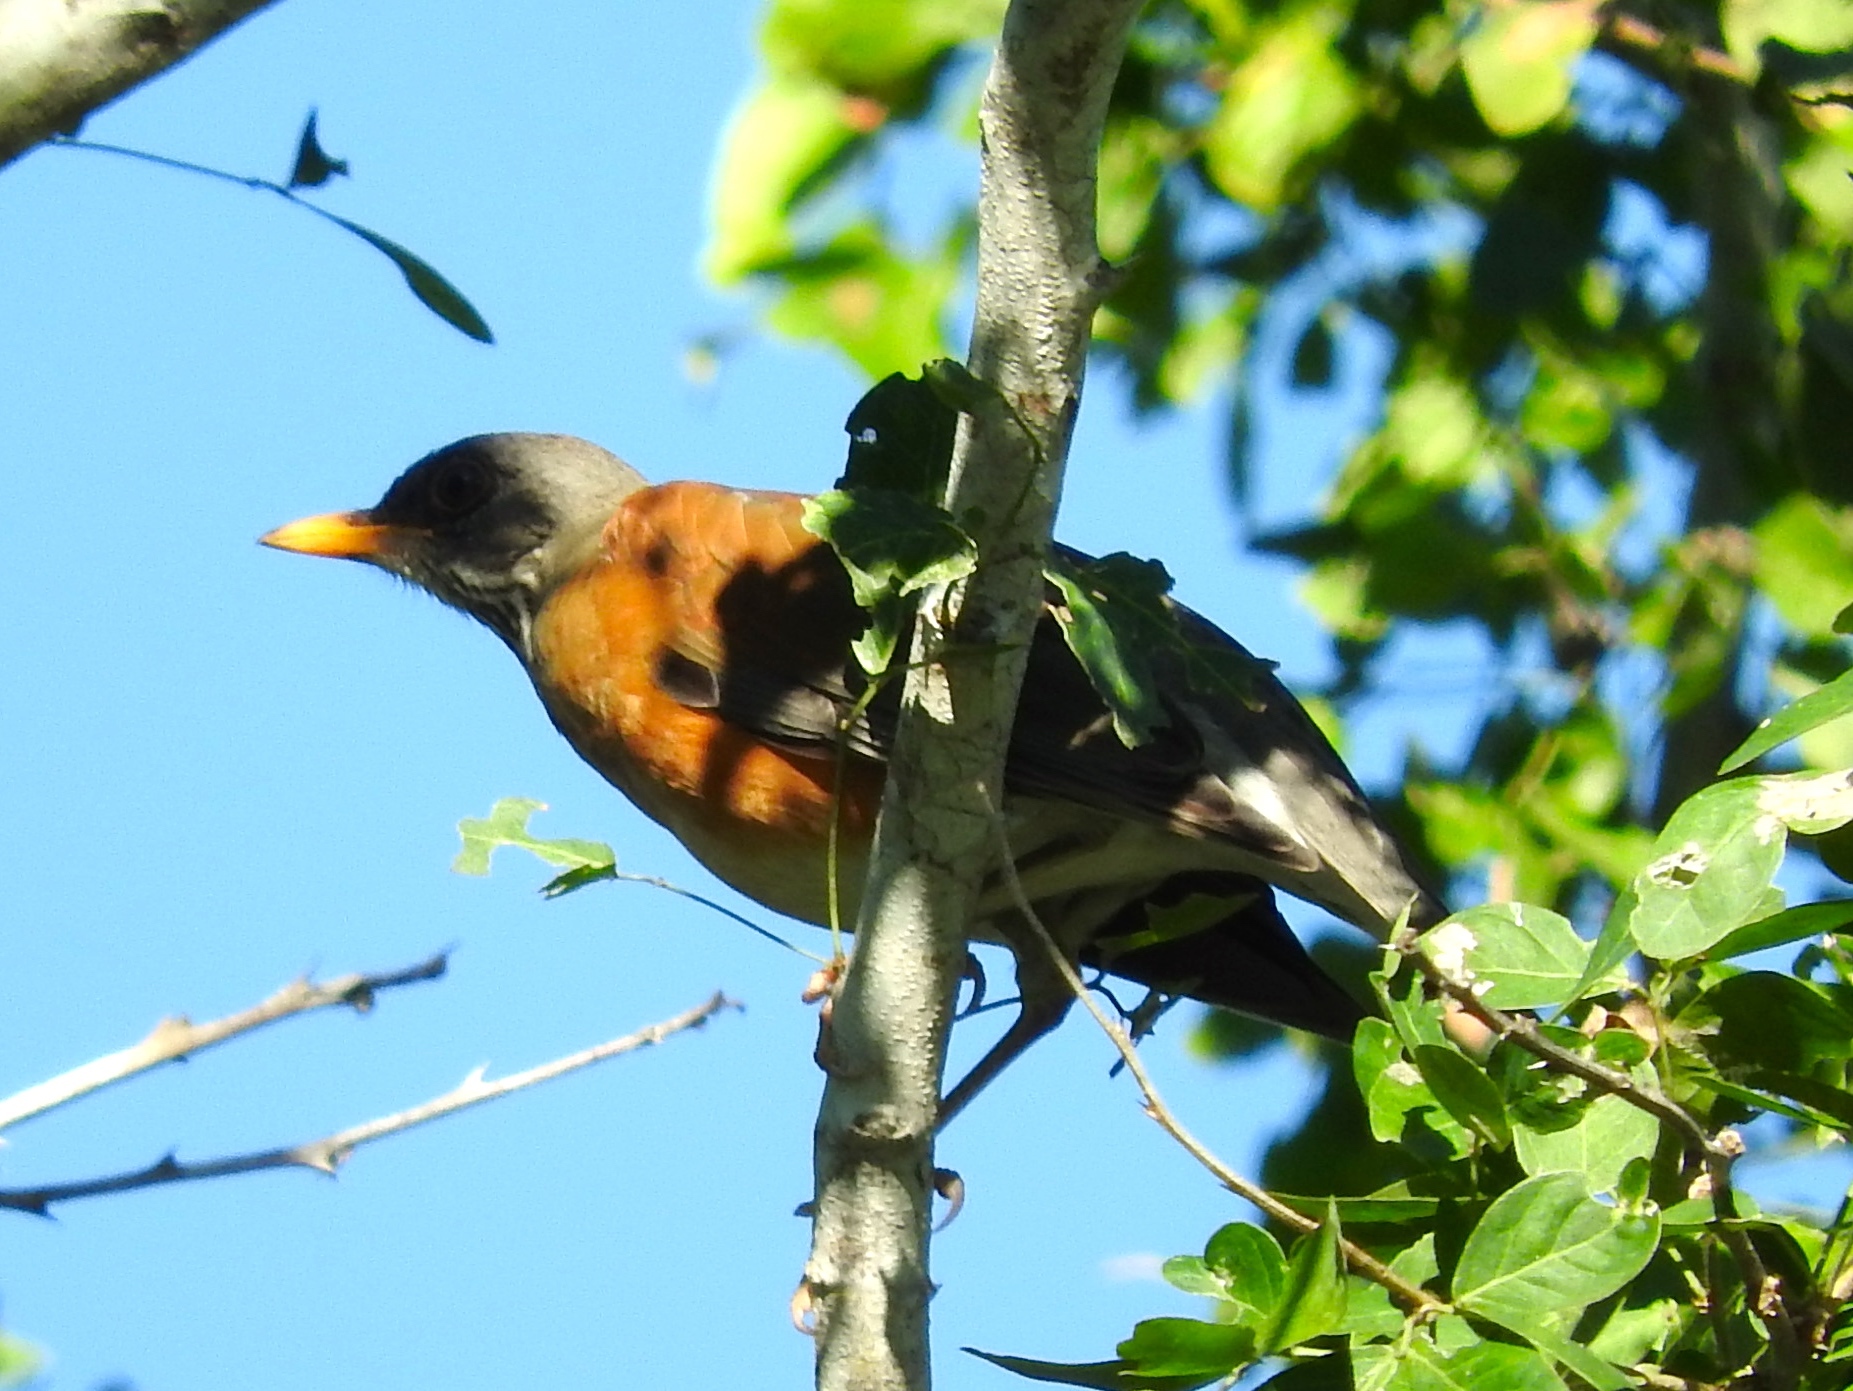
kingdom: Animalia
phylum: Chordata
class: Aves
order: Passeriformes
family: Turdidae
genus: Turdus
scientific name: Turdus rufopalliatus
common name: Rufous-backed robin
